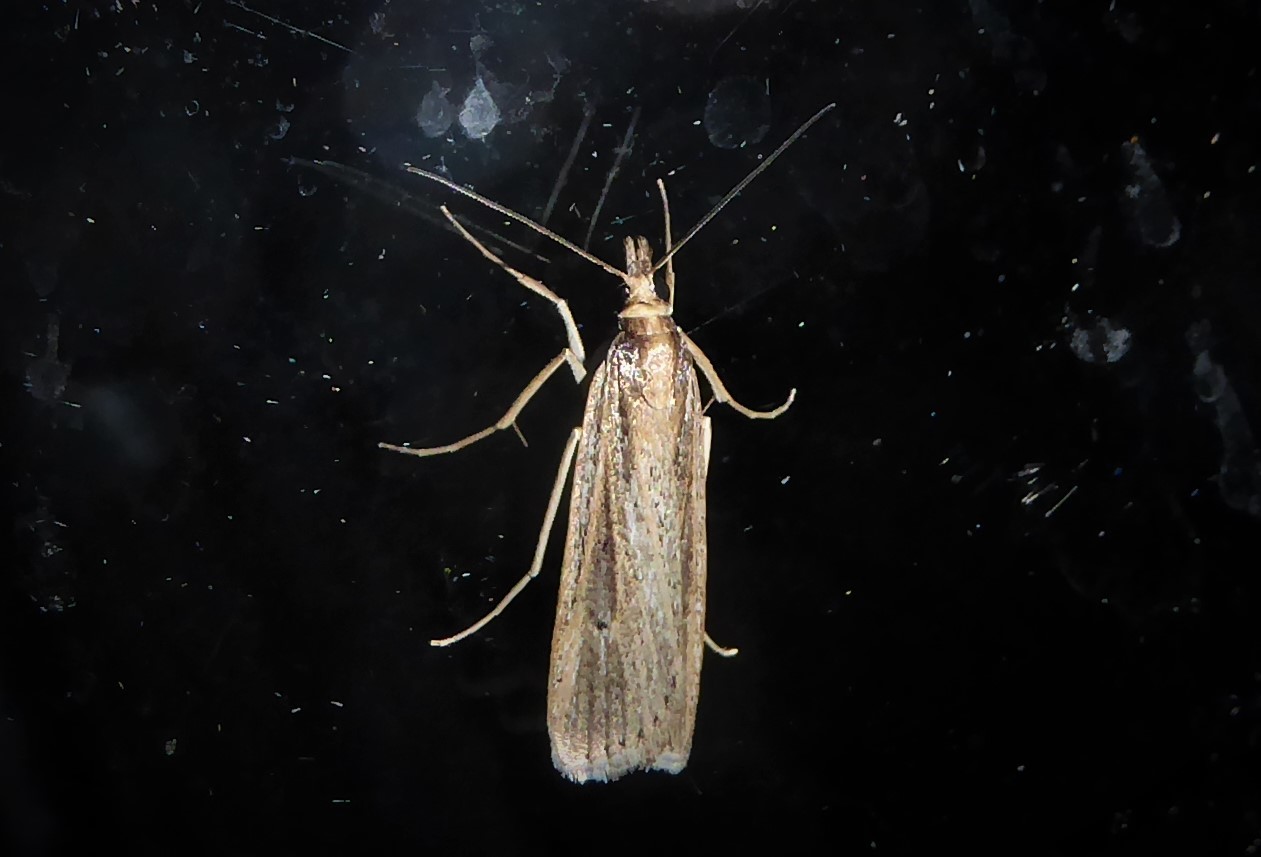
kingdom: Animalia
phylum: Arthropoda
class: Insecta
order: Lepidoptera
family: Crambidae
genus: Eudonia
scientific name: Eudonia sabulosella
